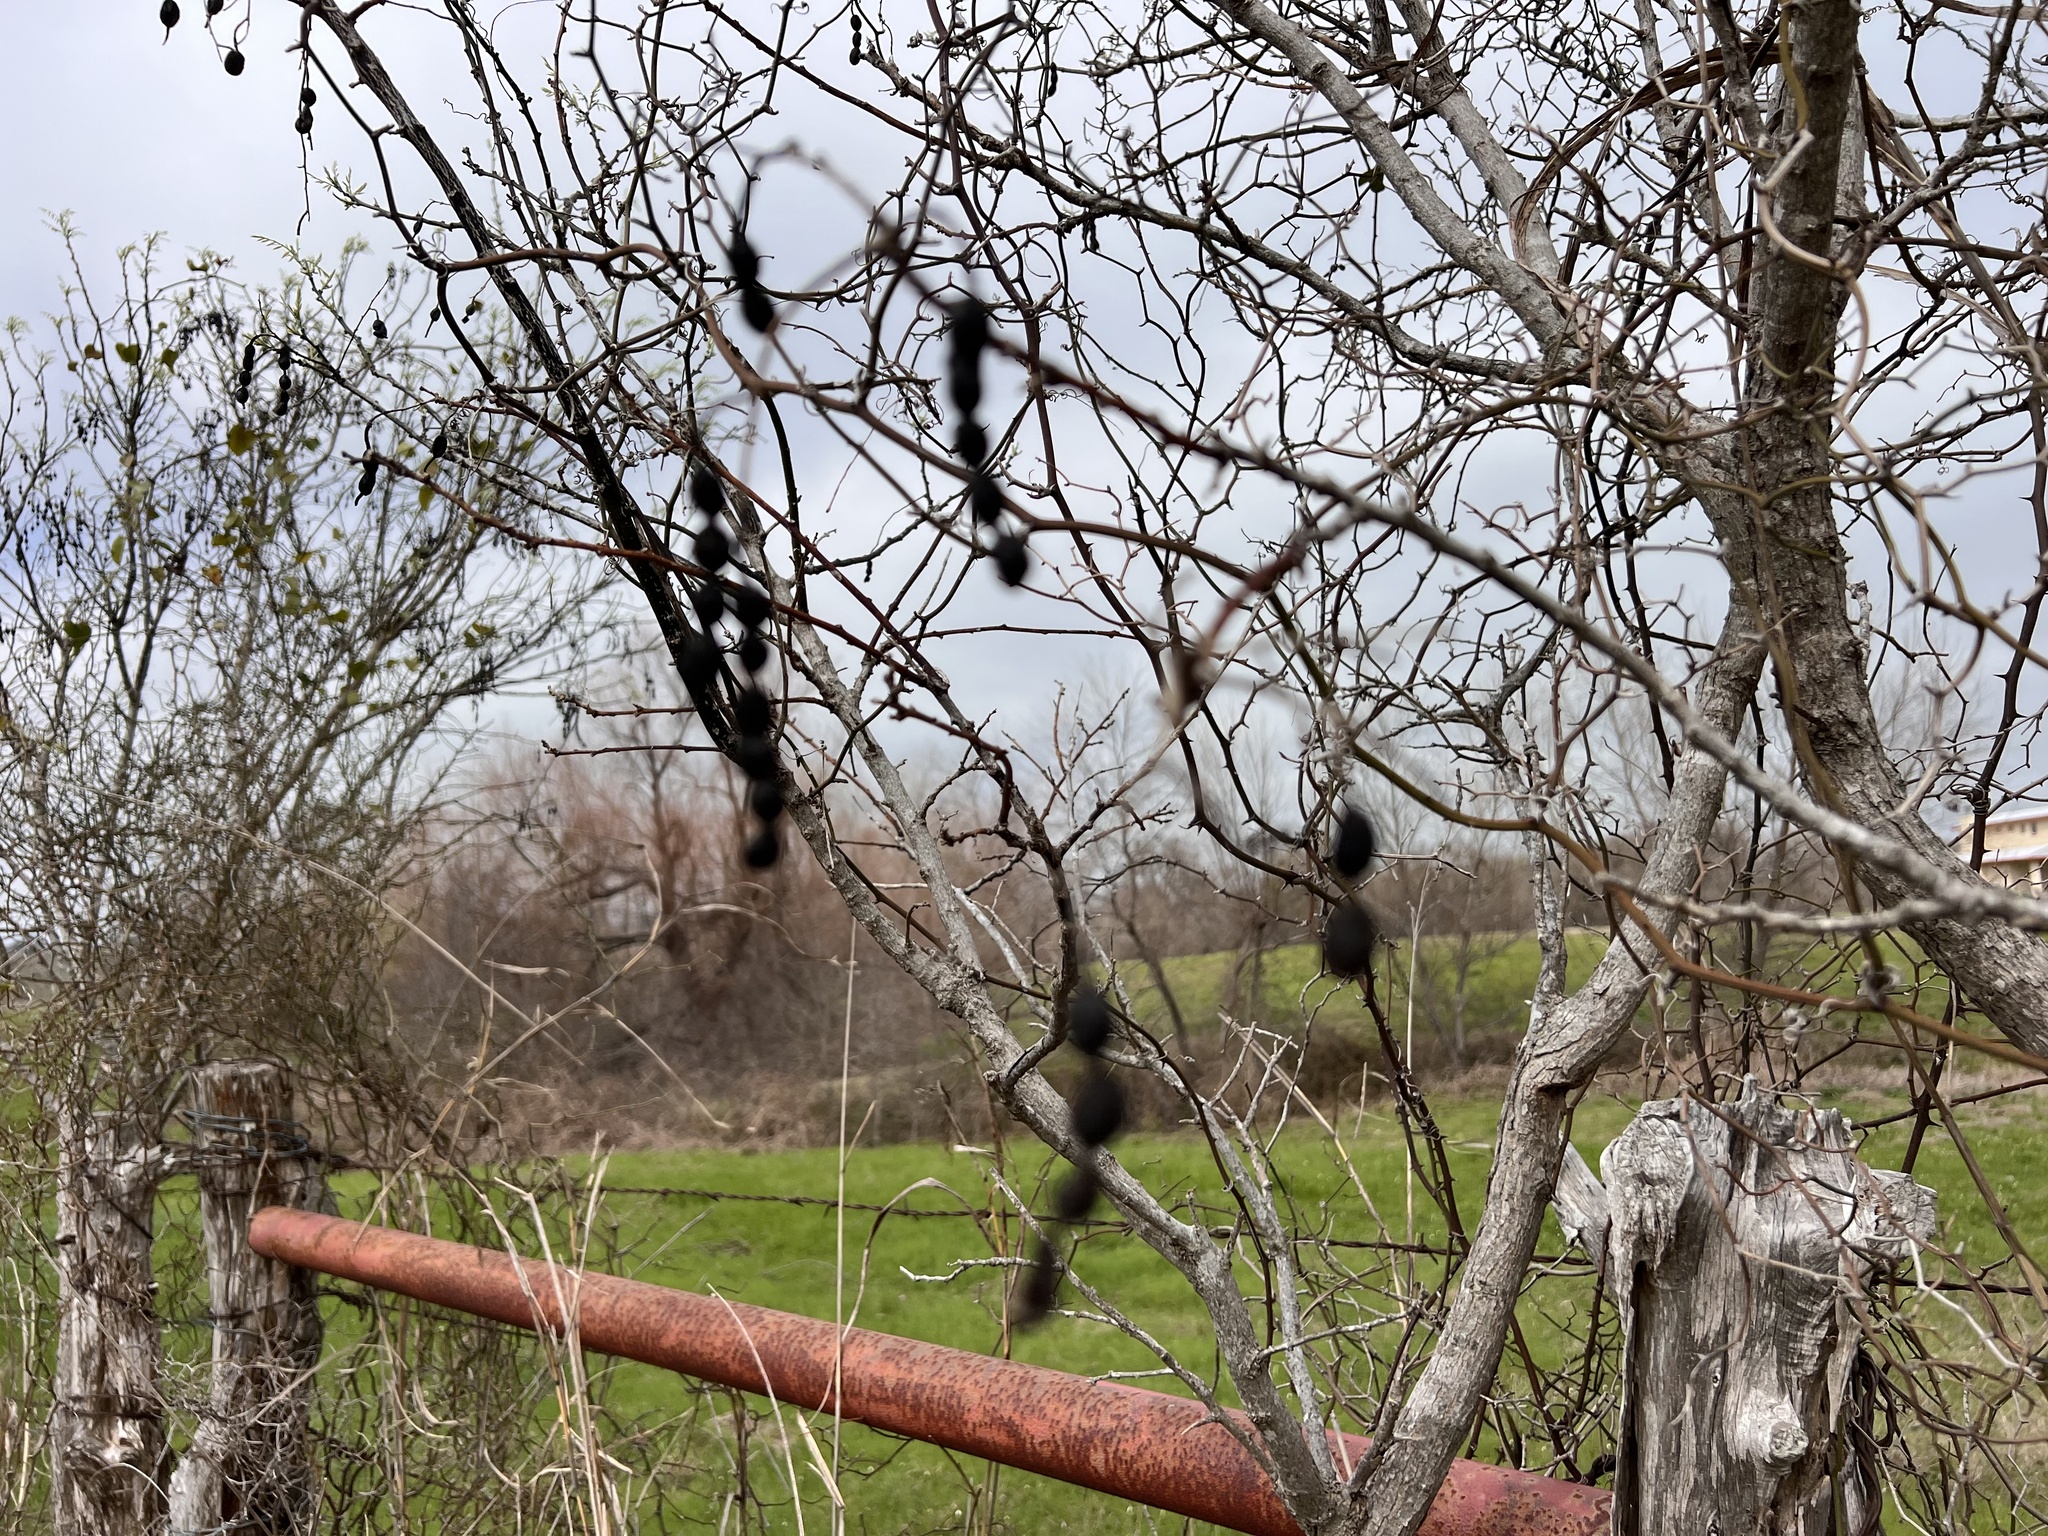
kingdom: Plantae
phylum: Tracheophyta
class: Magnoliopsida
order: Fabales
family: Fabaceae
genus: Styphnolobium
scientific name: Styphnolobium affine
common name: Texas sophora
